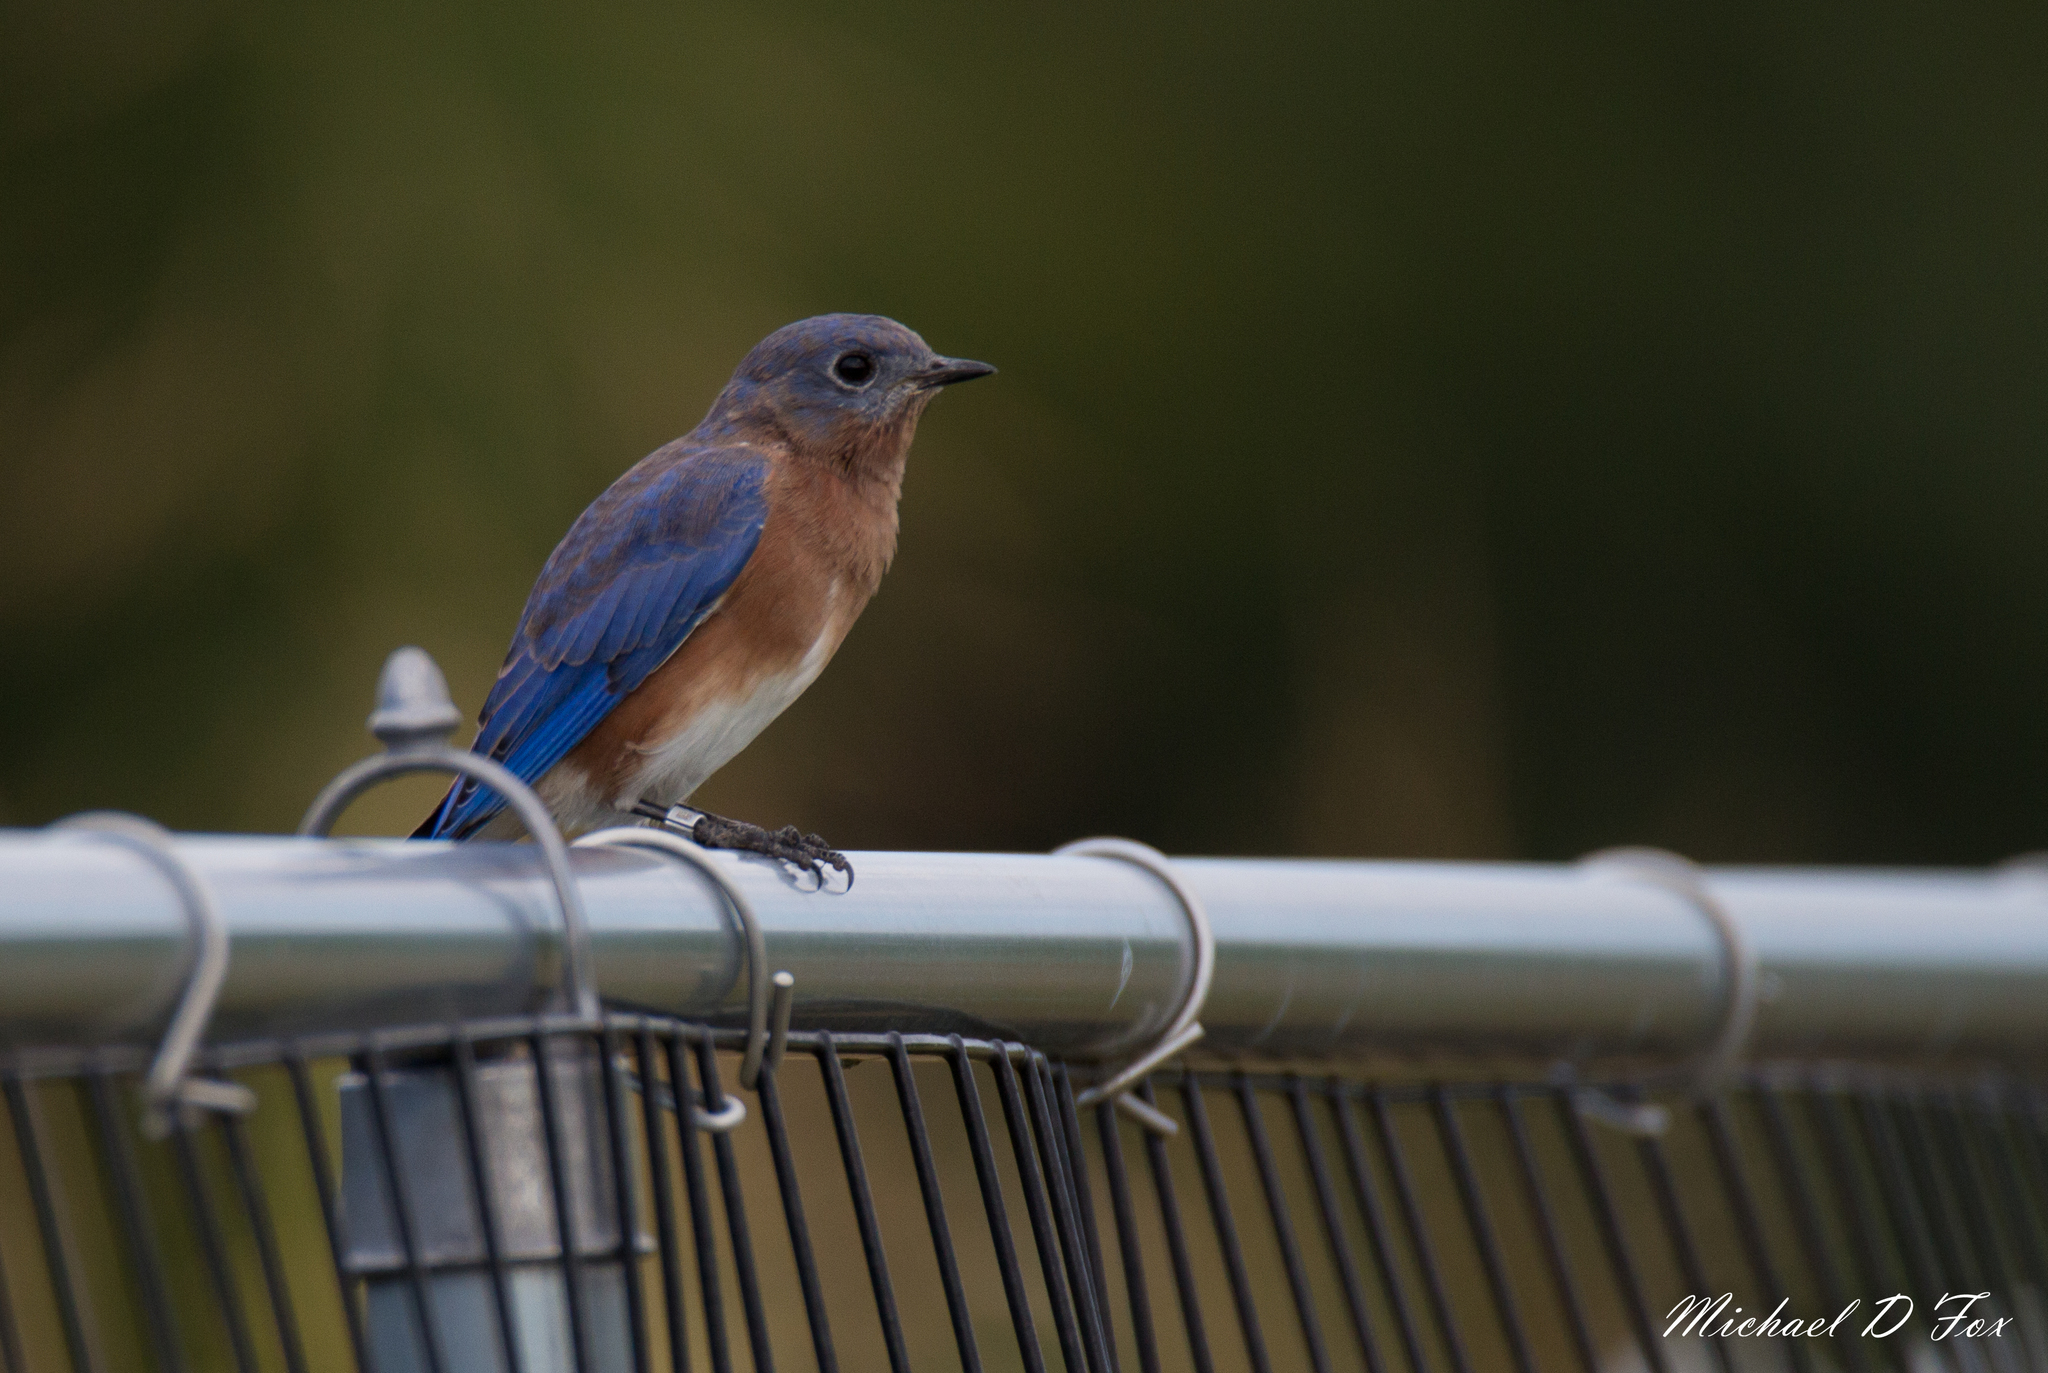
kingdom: Animalia
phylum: Chordata
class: Aves
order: Passeriformes
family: Turdidae
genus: Sialia
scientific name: Sialia sialis
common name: Eastern bluebird
